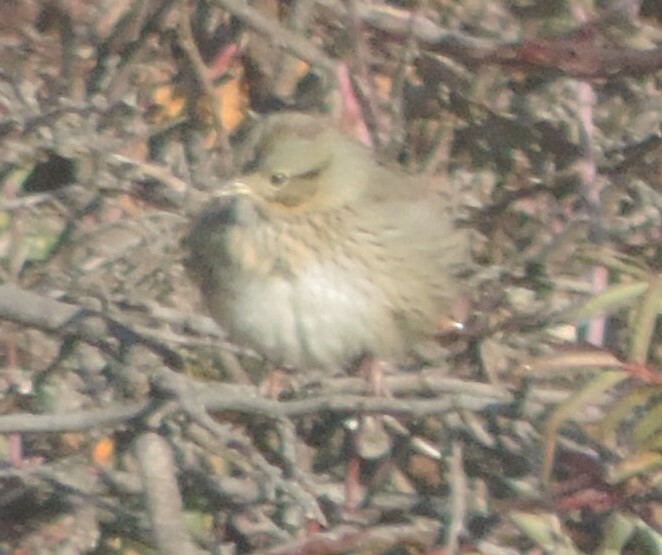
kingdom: Animalia
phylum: Chordata
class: Aves
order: Passeriformes
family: Passerellidae
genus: Melospiza
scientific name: Melospiza lincolnii
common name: Lincoln's sparrow
